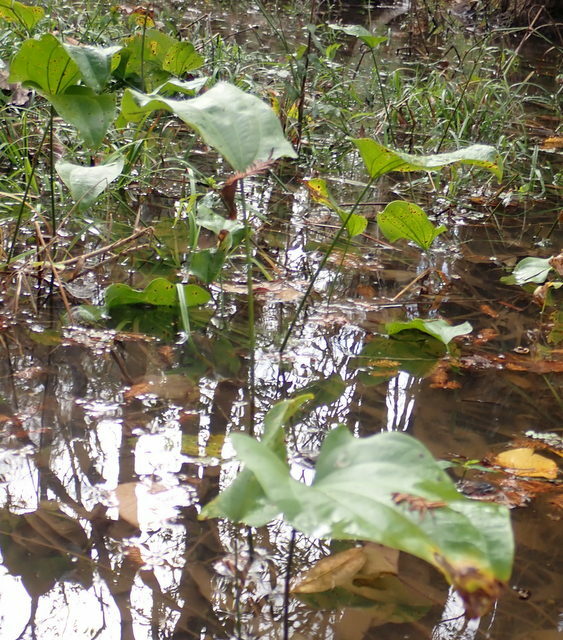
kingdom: Plantae
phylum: Tracheophyta
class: Liliopsida
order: Alismatales
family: Alismataceae
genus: Aquarius
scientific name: Aquarius cordifolius
